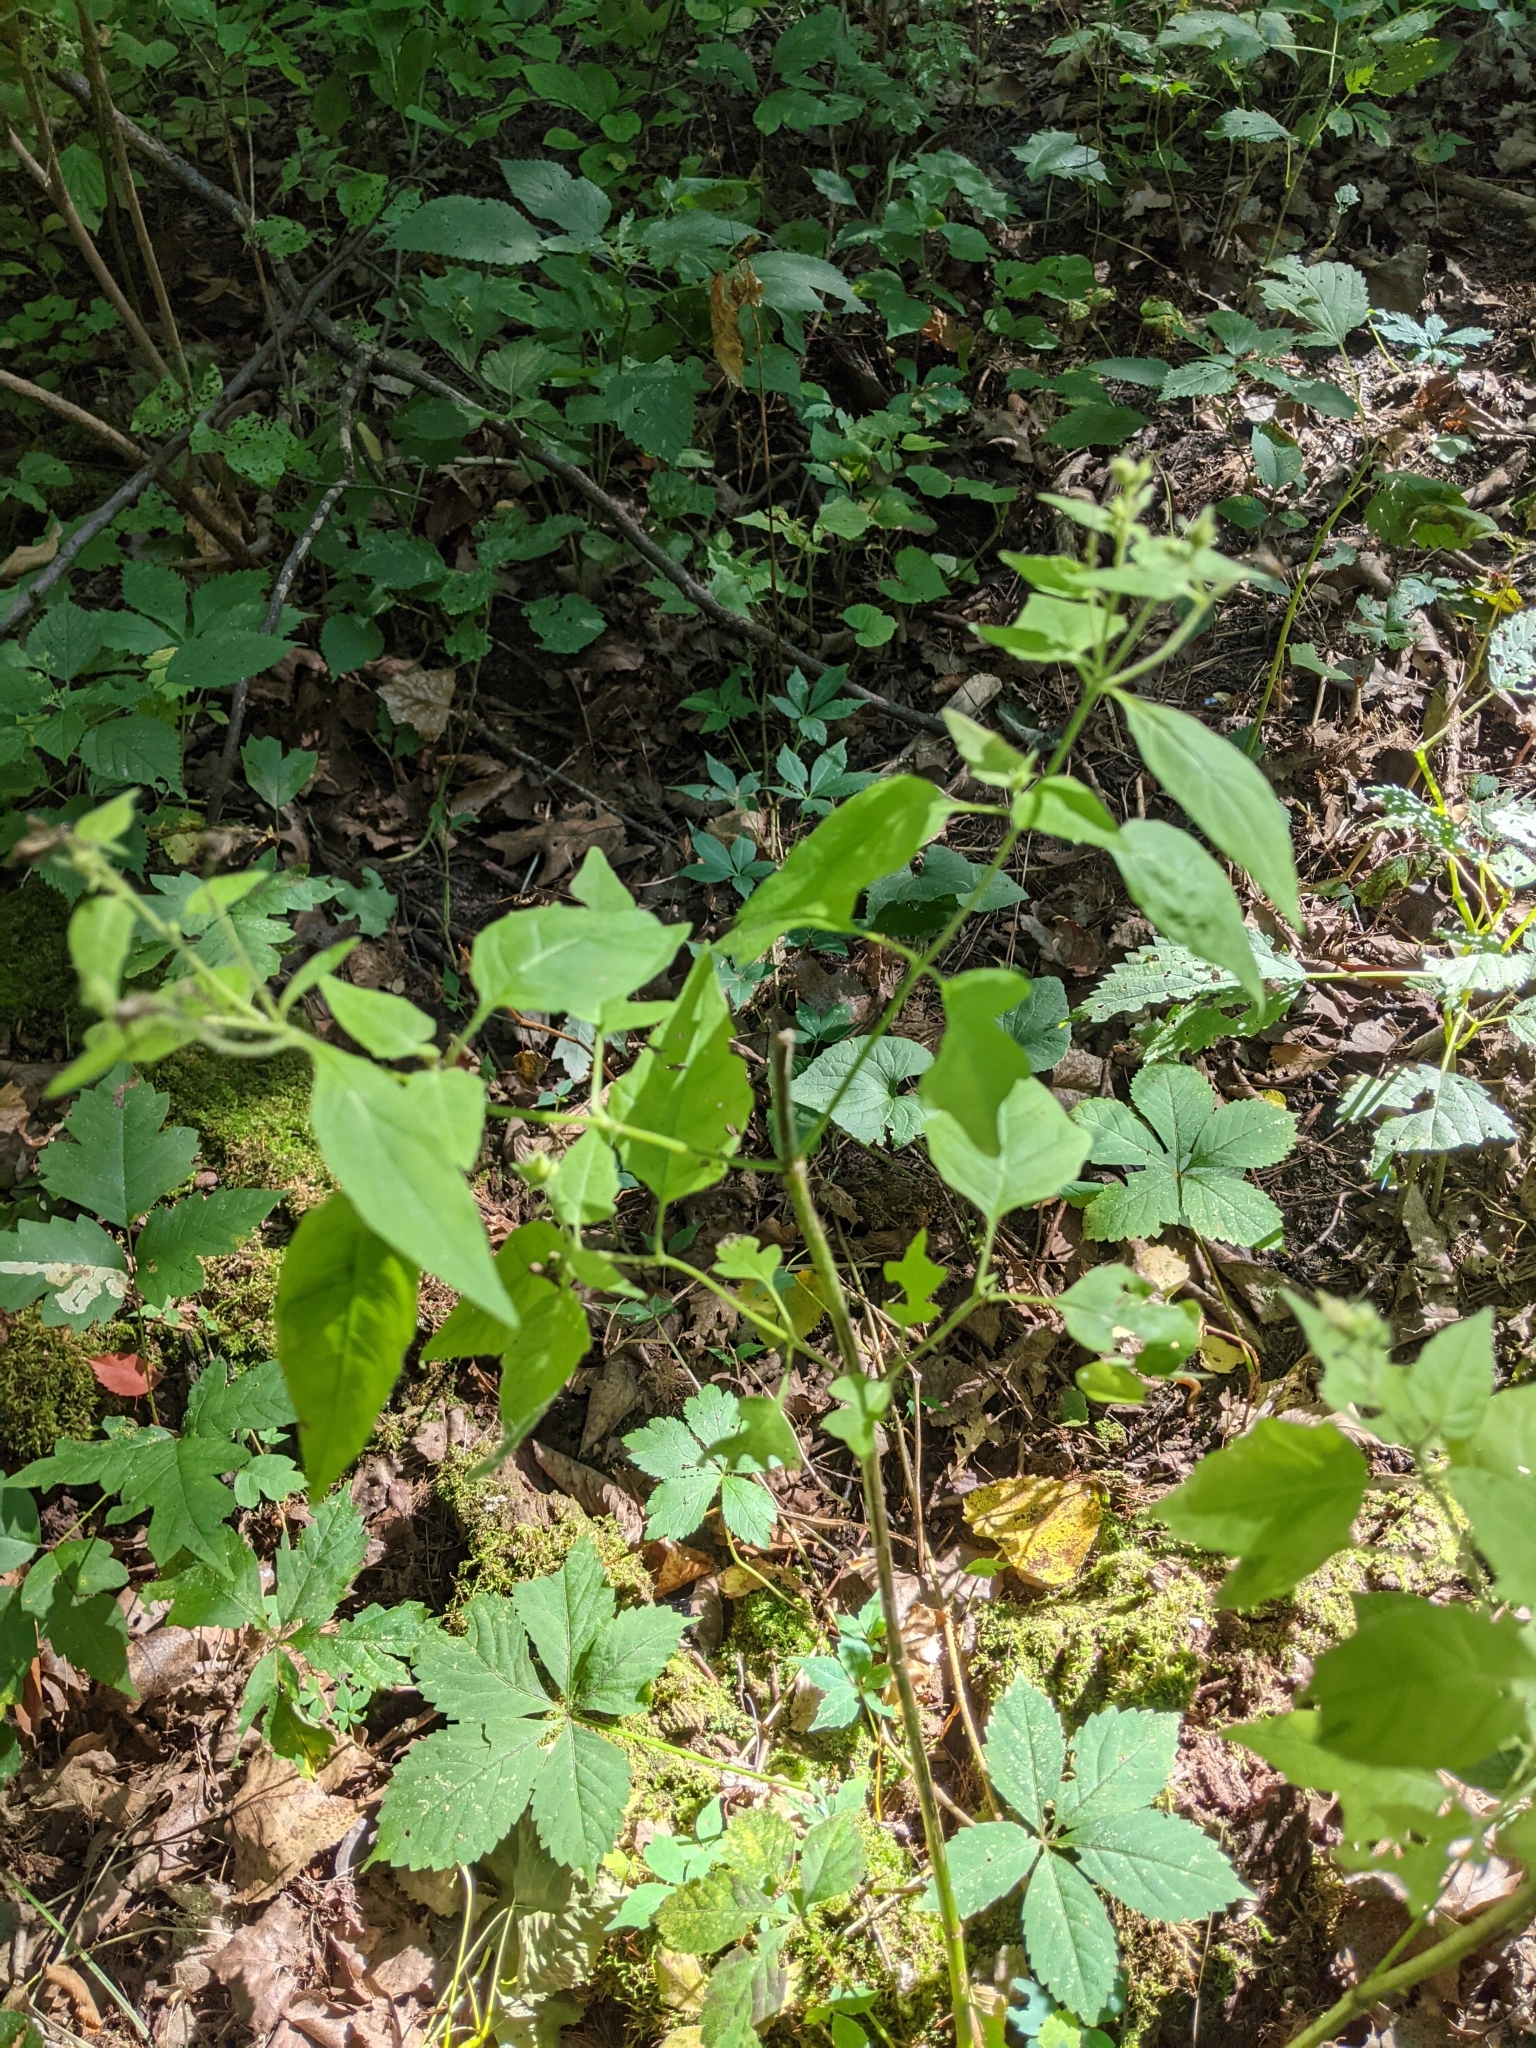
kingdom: Plantae
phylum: Tracheophyta
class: Magnoliopsida
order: Asterales
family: Asteraceae
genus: Polymnia
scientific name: Polymnia canadensis
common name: Pale-flowered leafcup
